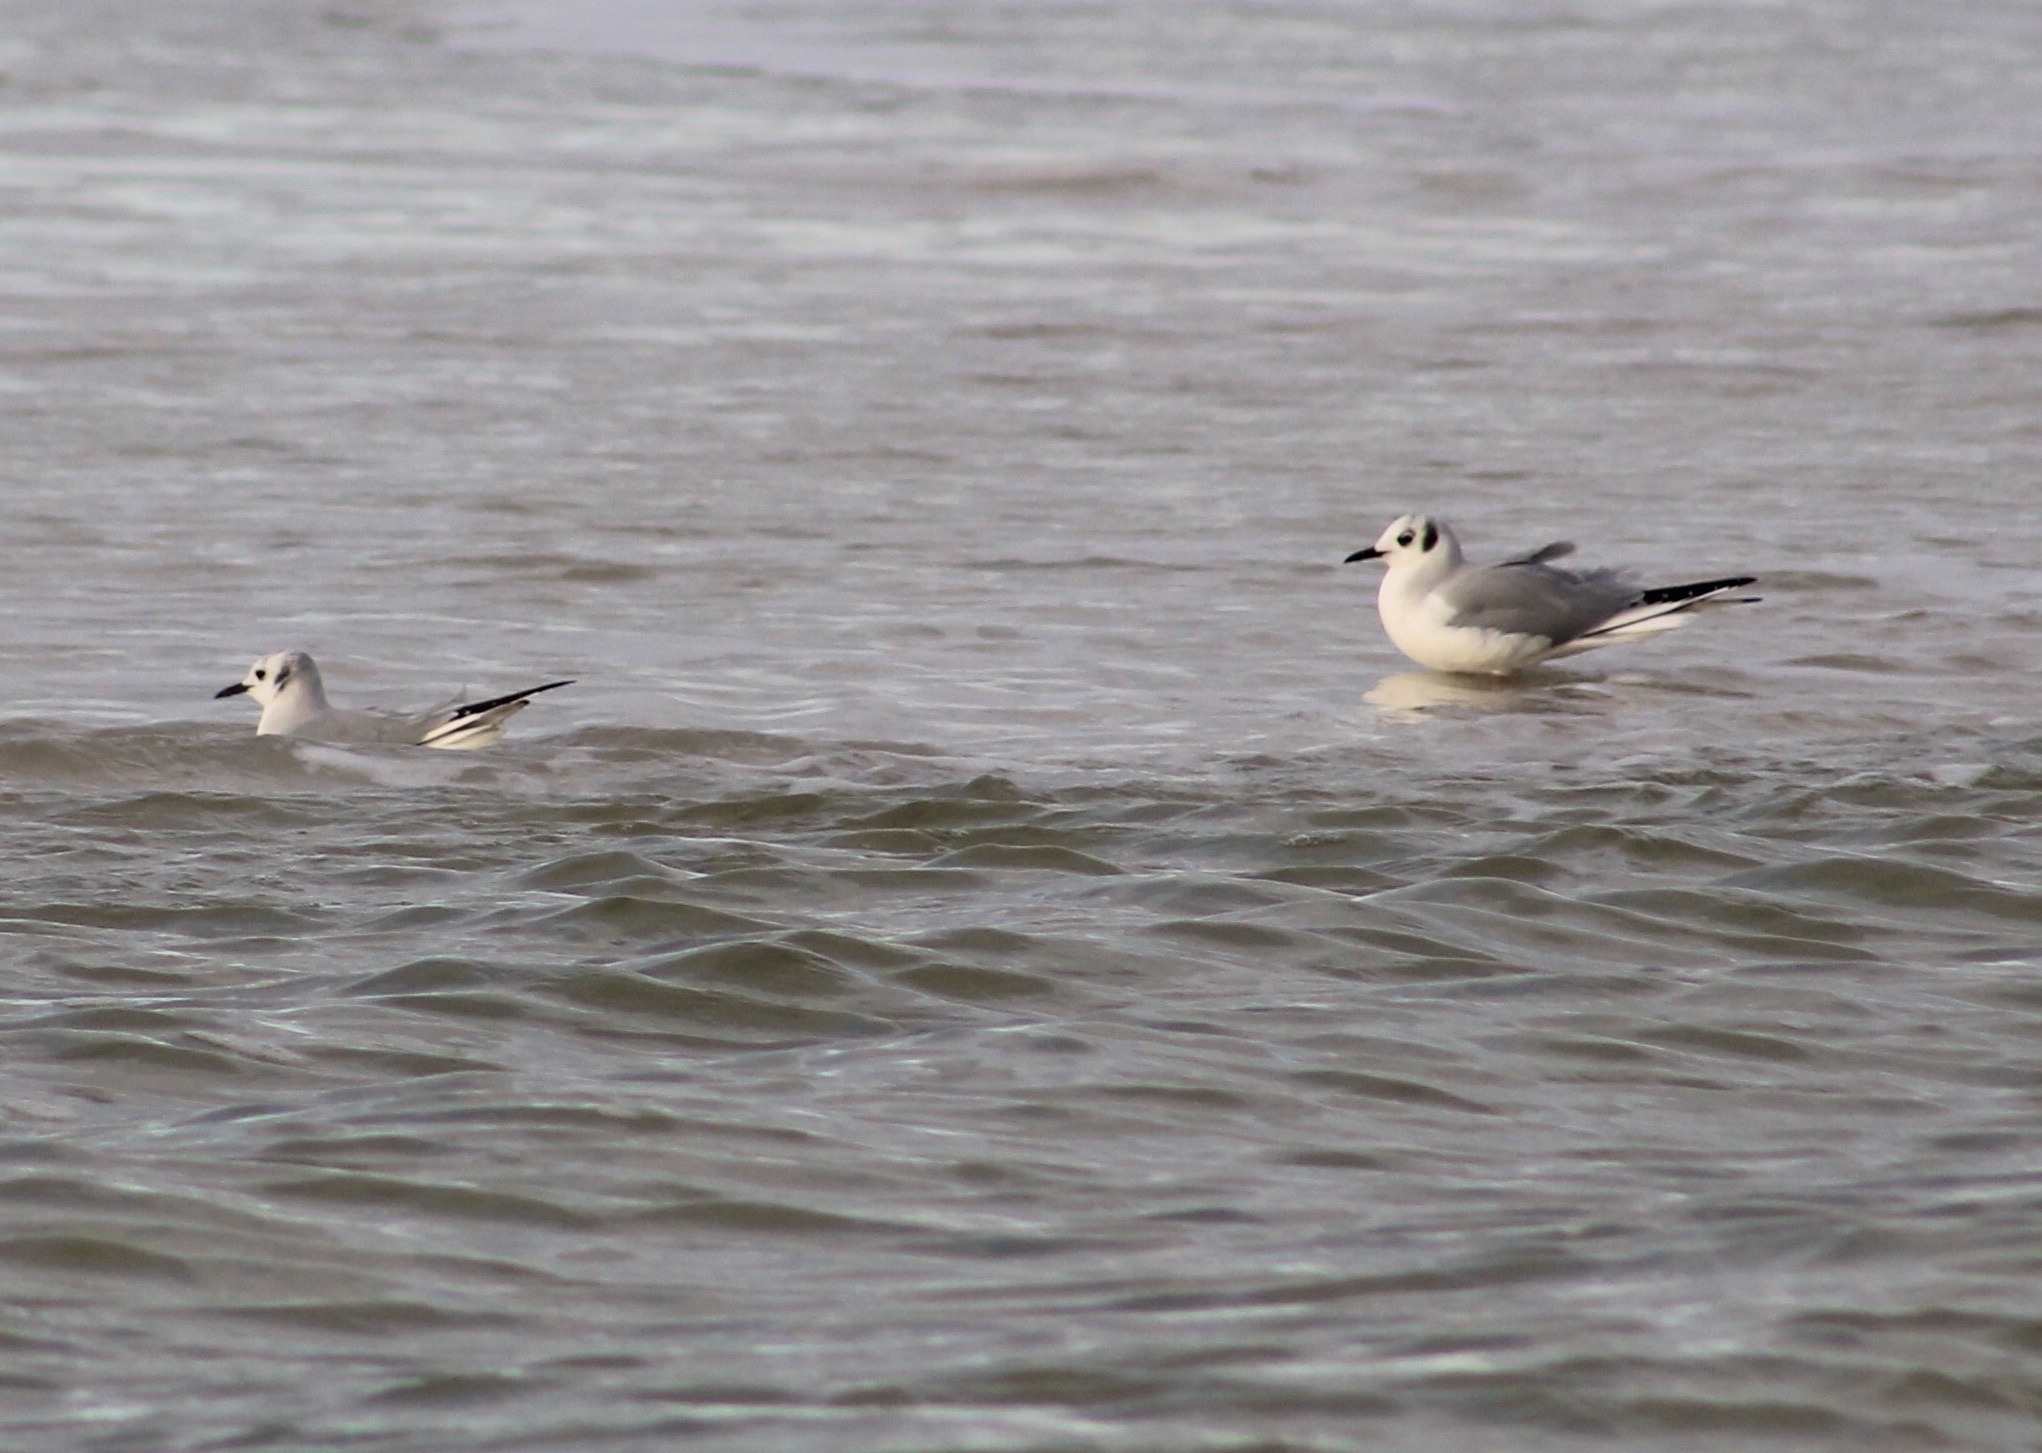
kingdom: Animalia
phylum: Chordata
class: Aves
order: Charadriiformes
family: Laridae
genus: Chroicocephalus
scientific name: Chroicocephalus philadelphia
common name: Bonaparte's gull
